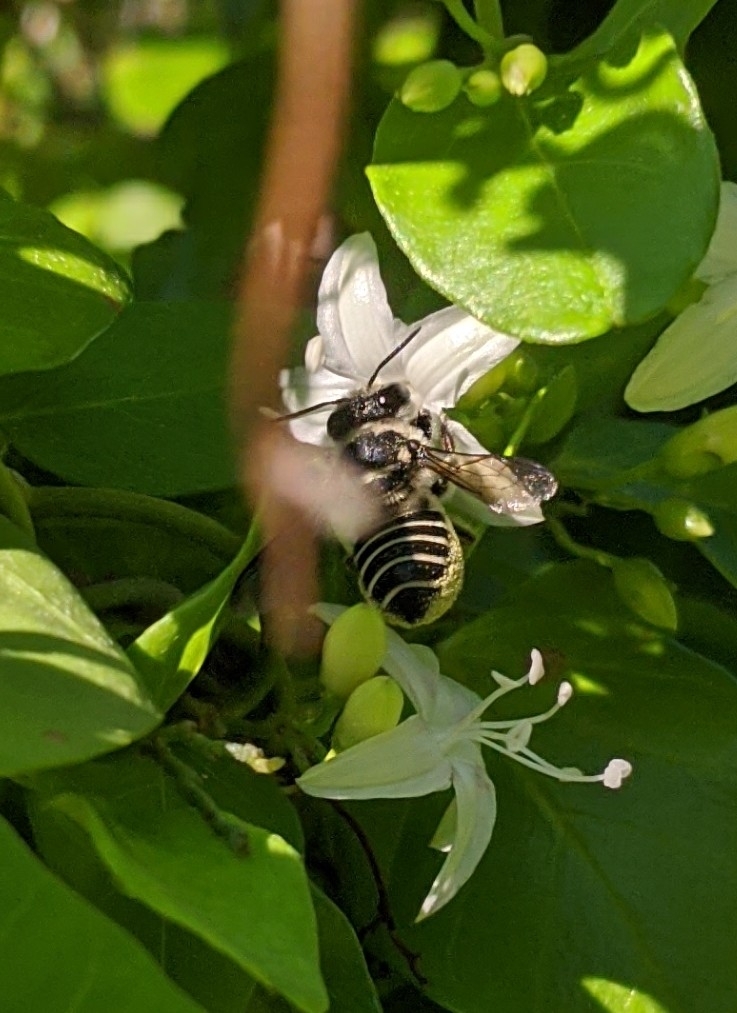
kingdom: Animalia
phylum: Arthropoda
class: Insecta
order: Hymenoptera
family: Megachilidae
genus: Megachile
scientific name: Megachile jerryrozeni
